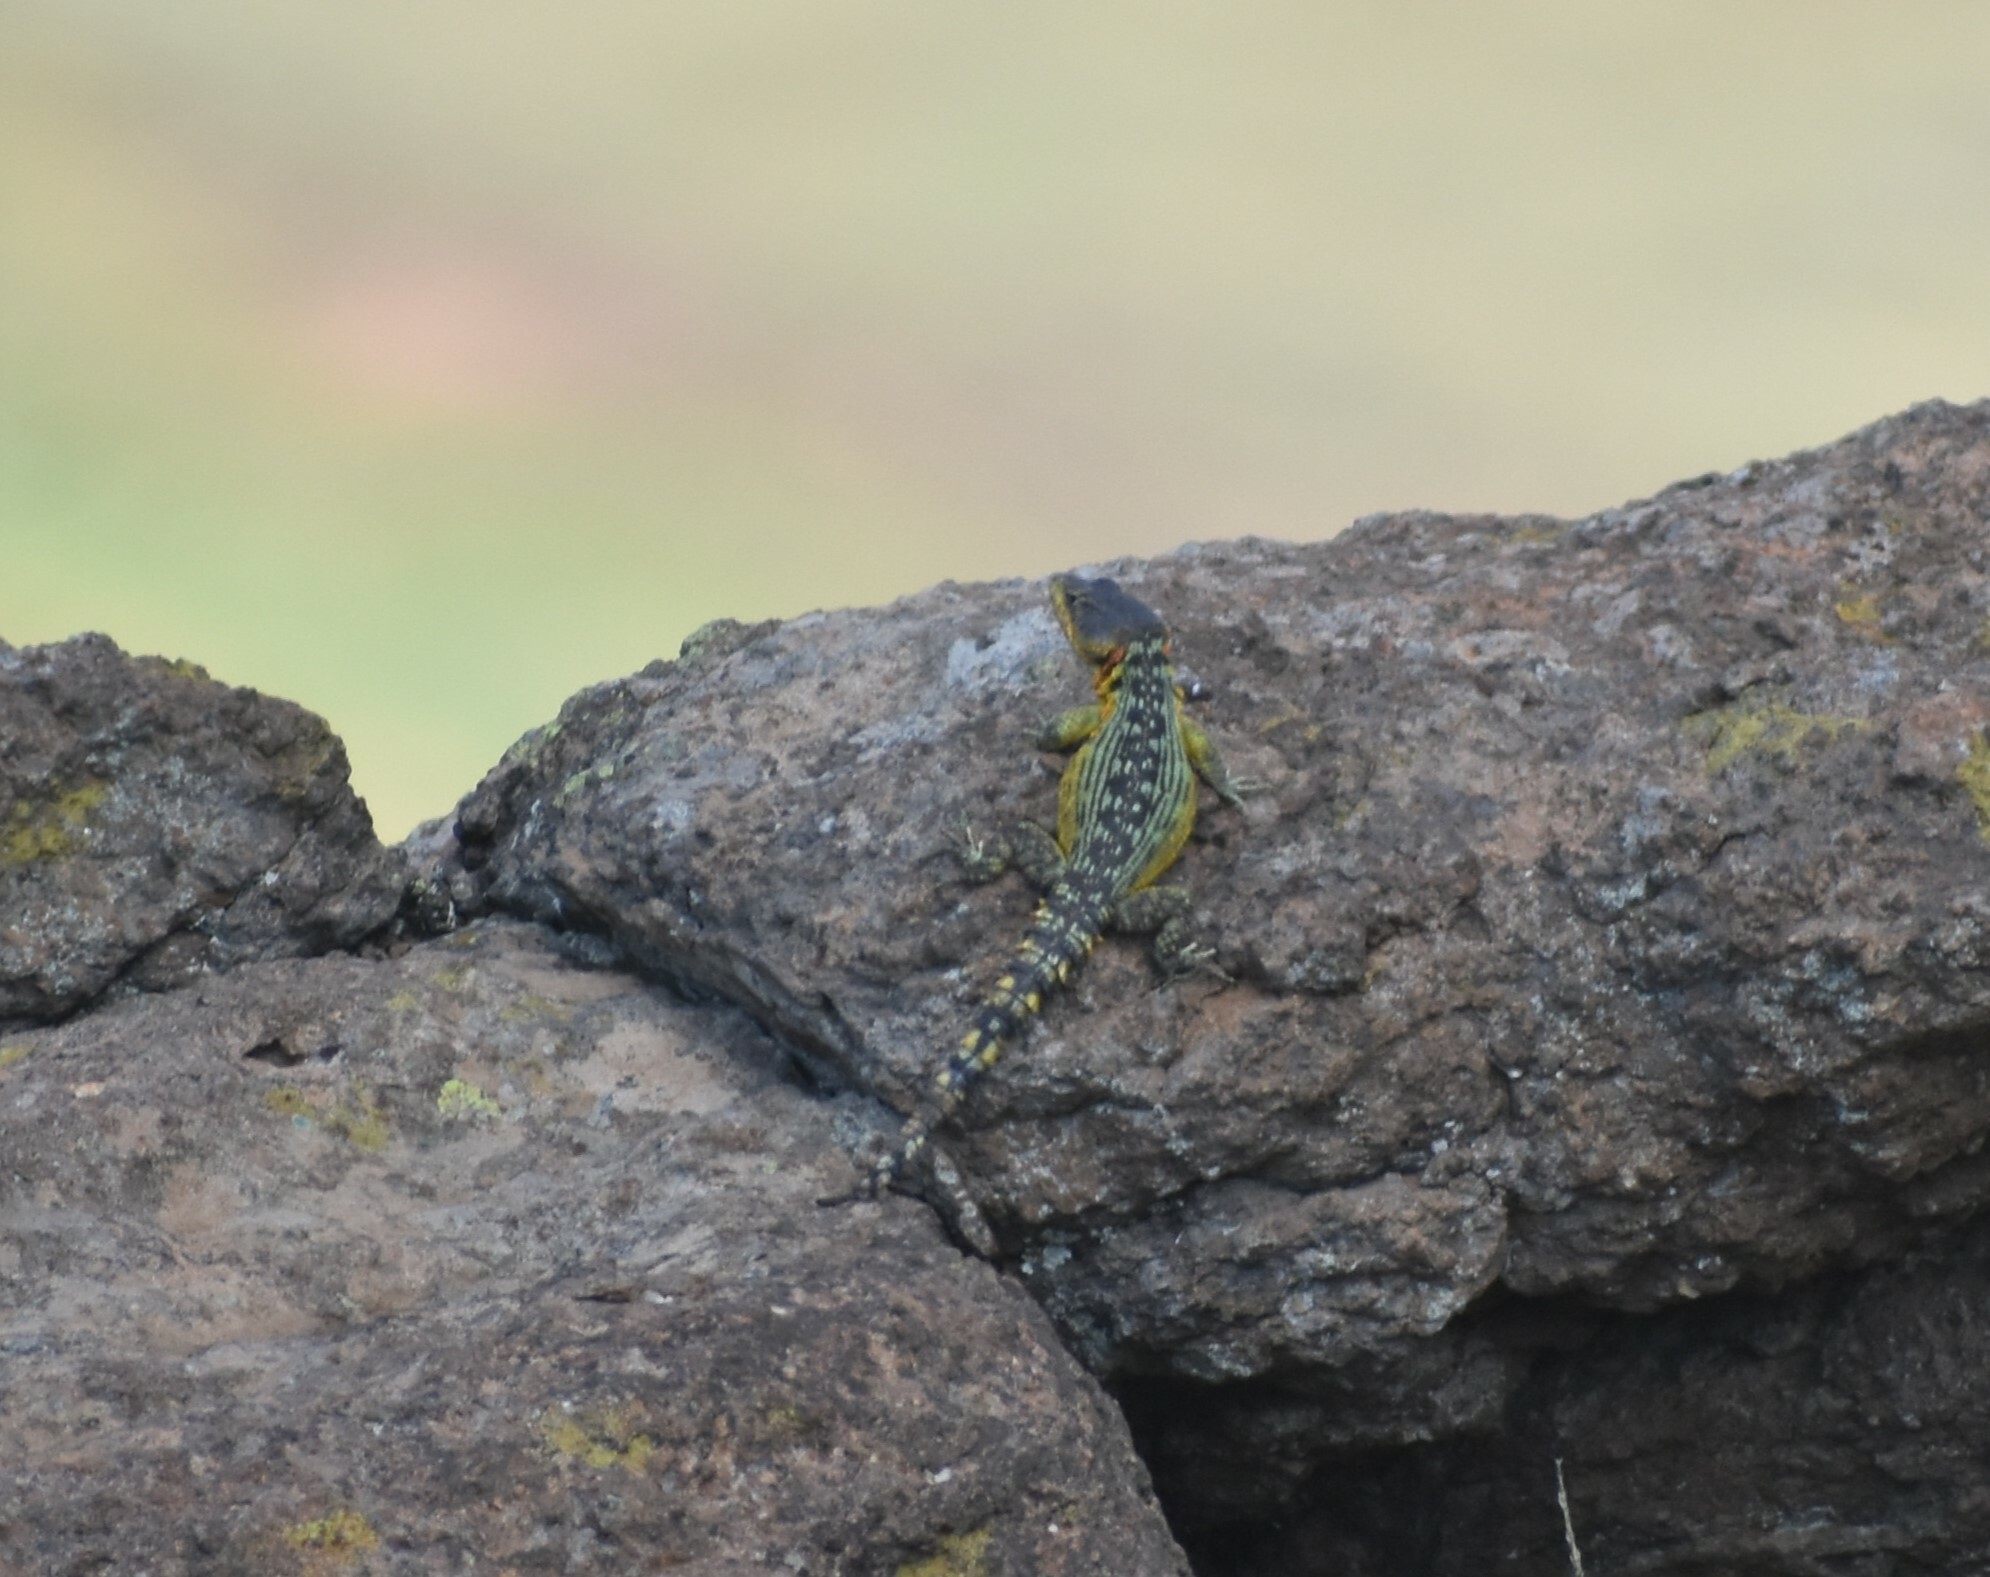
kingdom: Animalia
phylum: Chordata
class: Squamata
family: Cordylidae
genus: Pseudocordylus
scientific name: Pseudocordylus subviridis
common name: Drakensberg crag lizard
